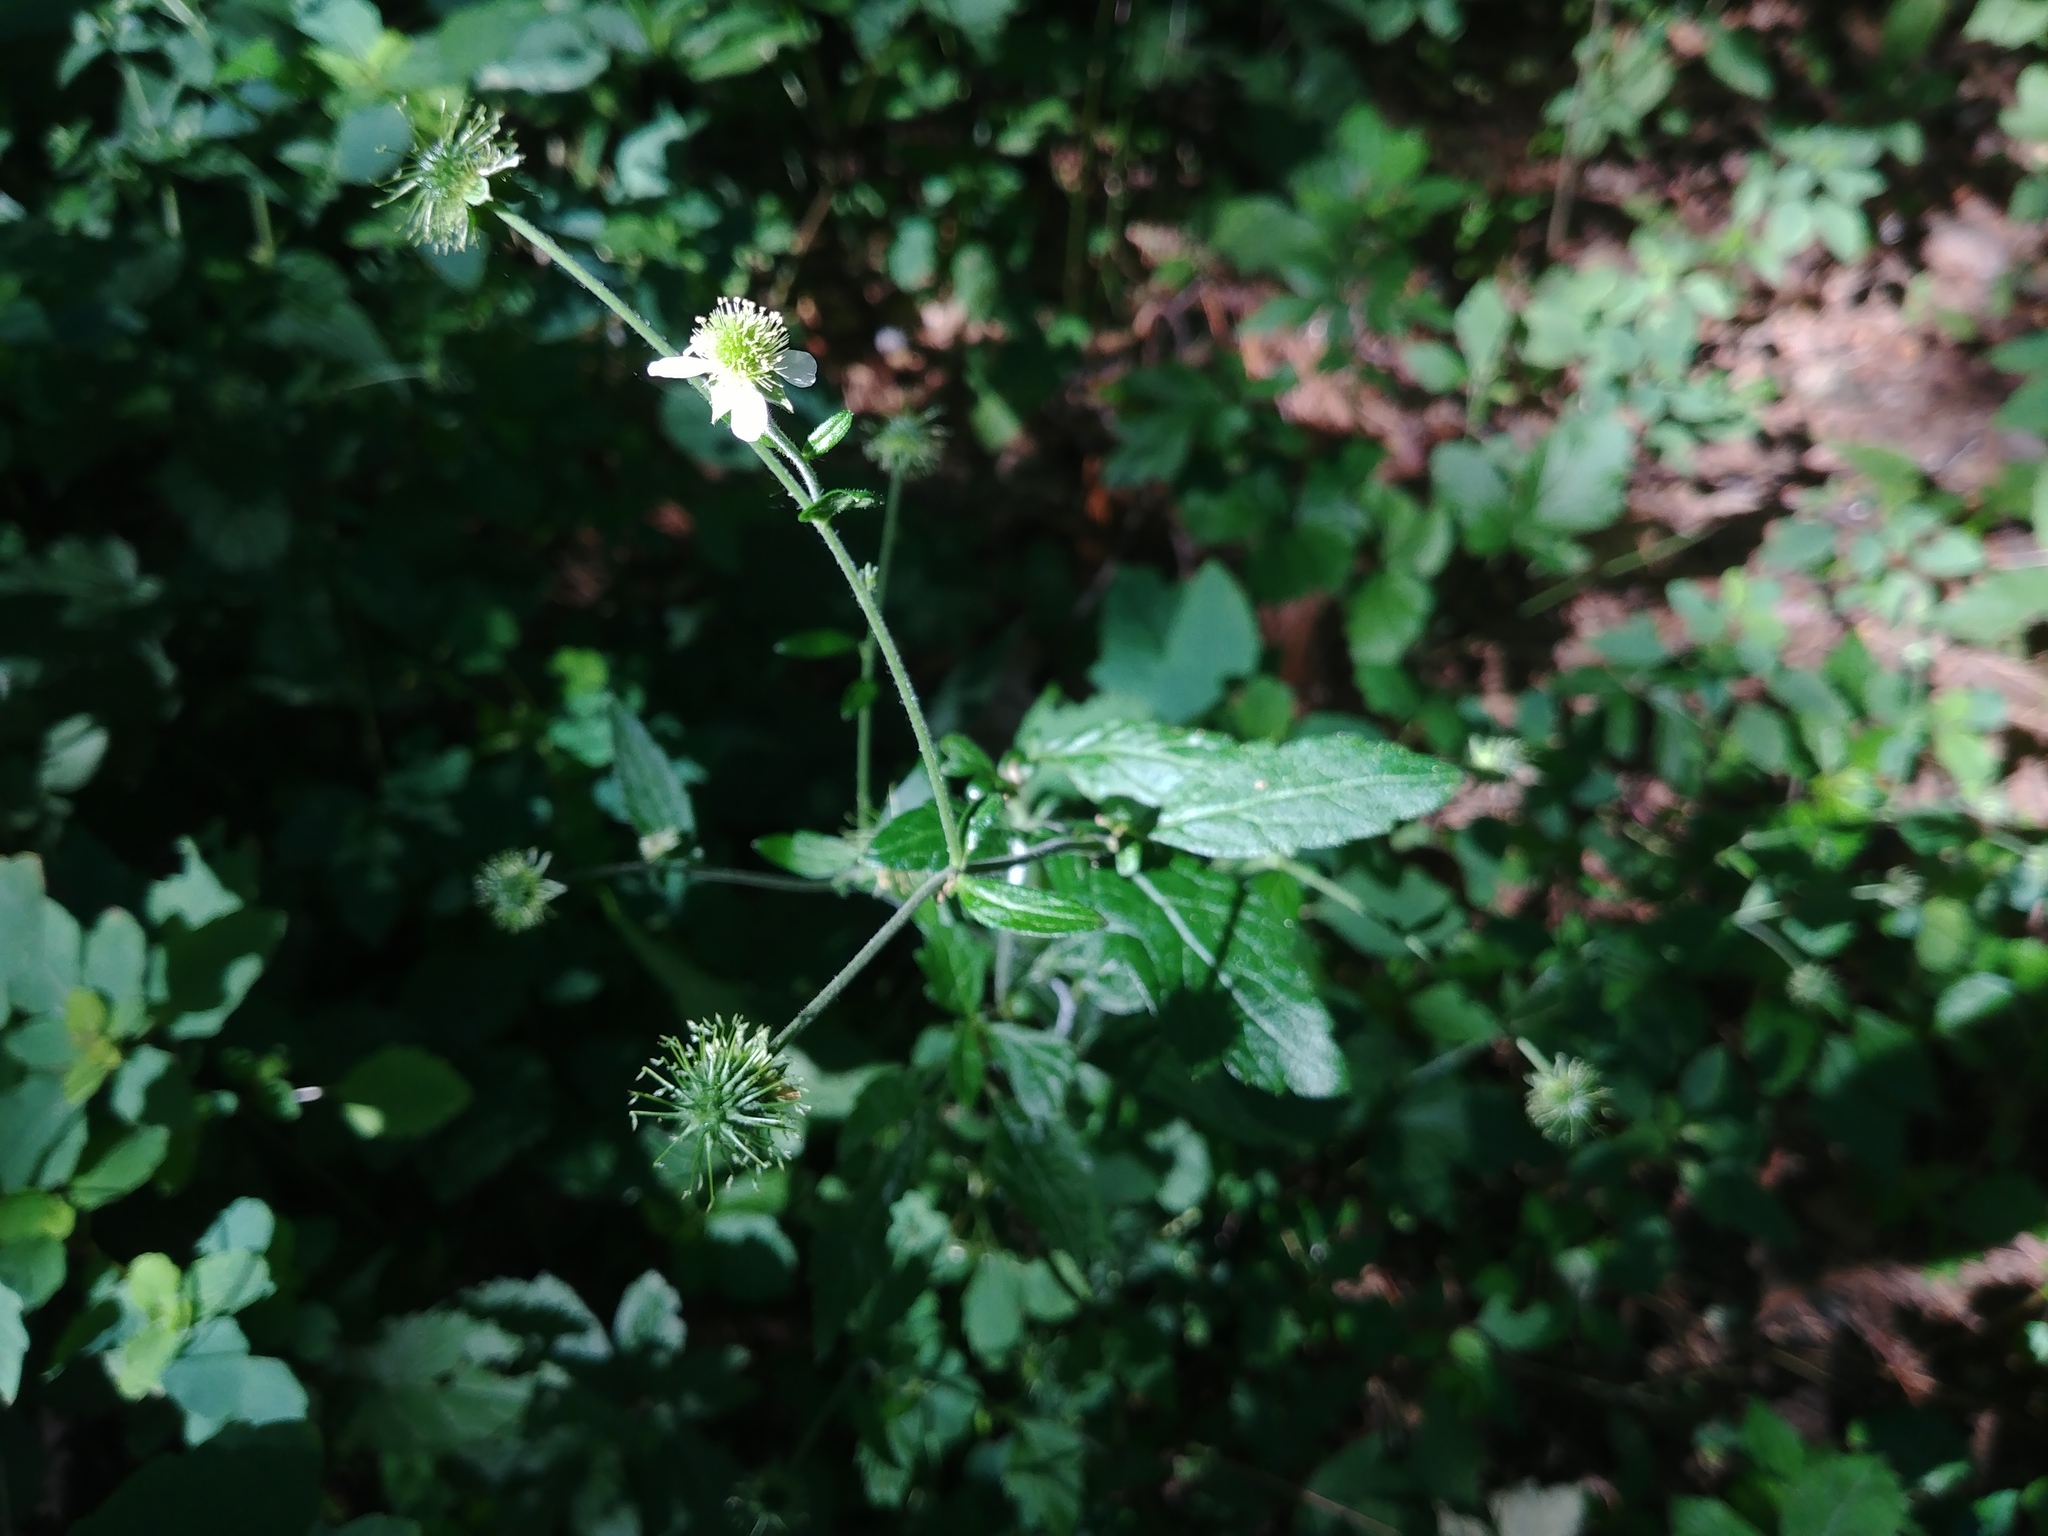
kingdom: Plantae
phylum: Tracheophyta
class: Magnoliopsida
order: Rosales
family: Rosaceae
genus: Geum
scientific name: Geum canadense
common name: White avens
